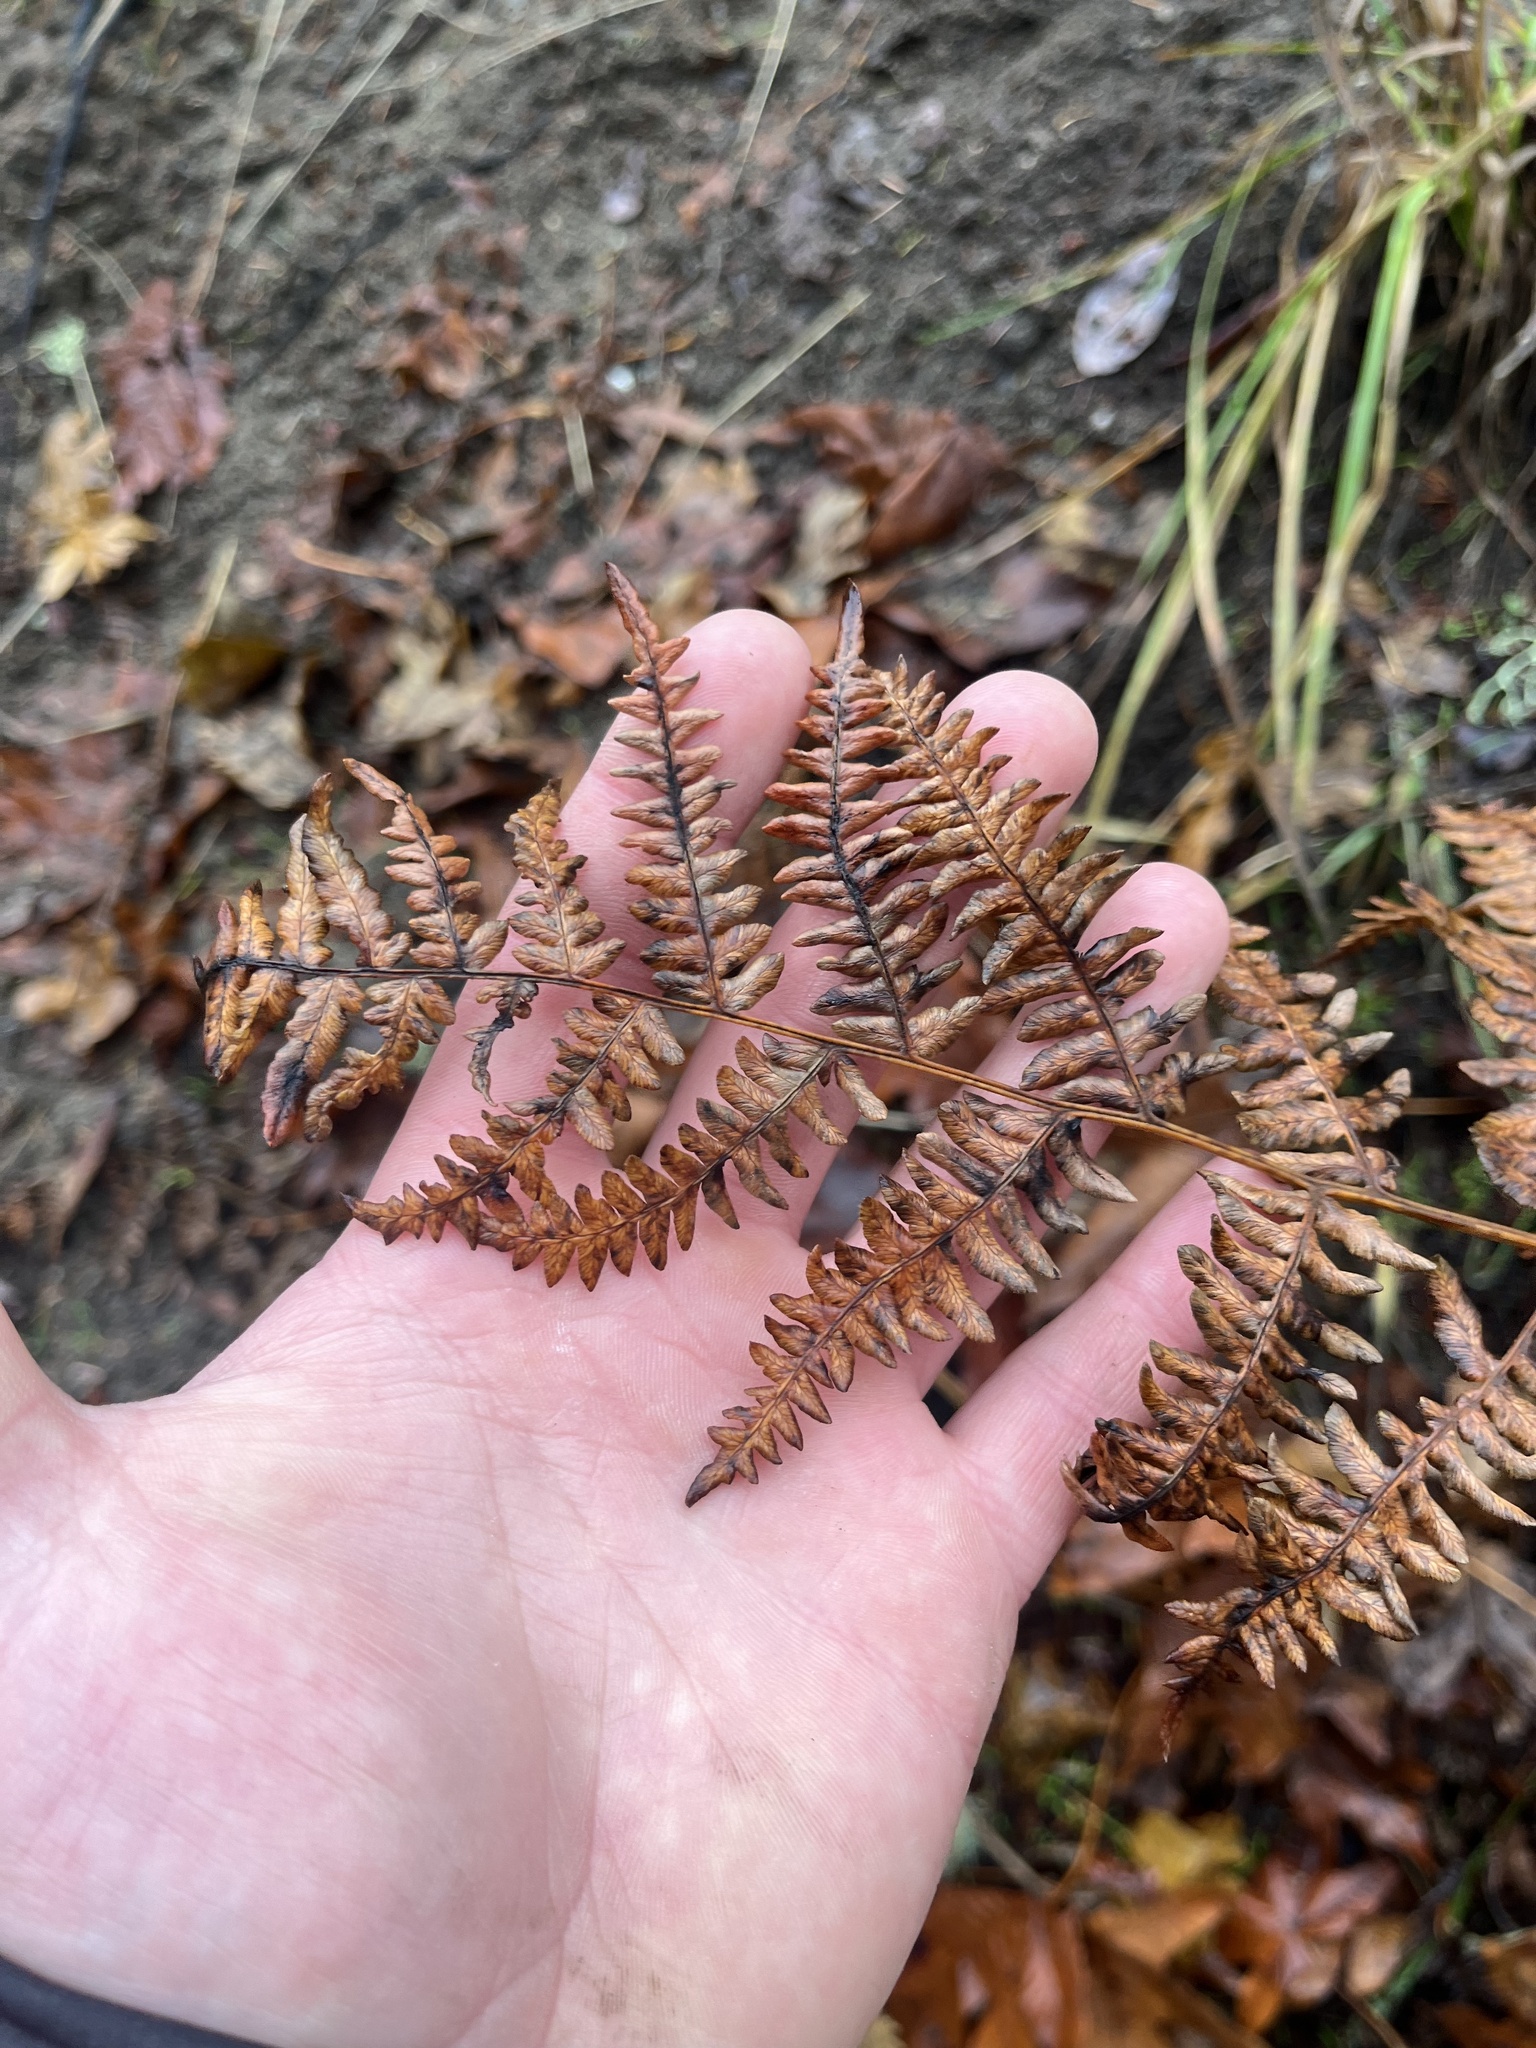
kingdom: Plantae
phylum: Tracheophyta
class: Polypodiopsida
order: Polypodiales
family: Dennstaedtiaceae
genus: Pteridium
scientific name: Pteridium aquilinum
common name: Bracken
